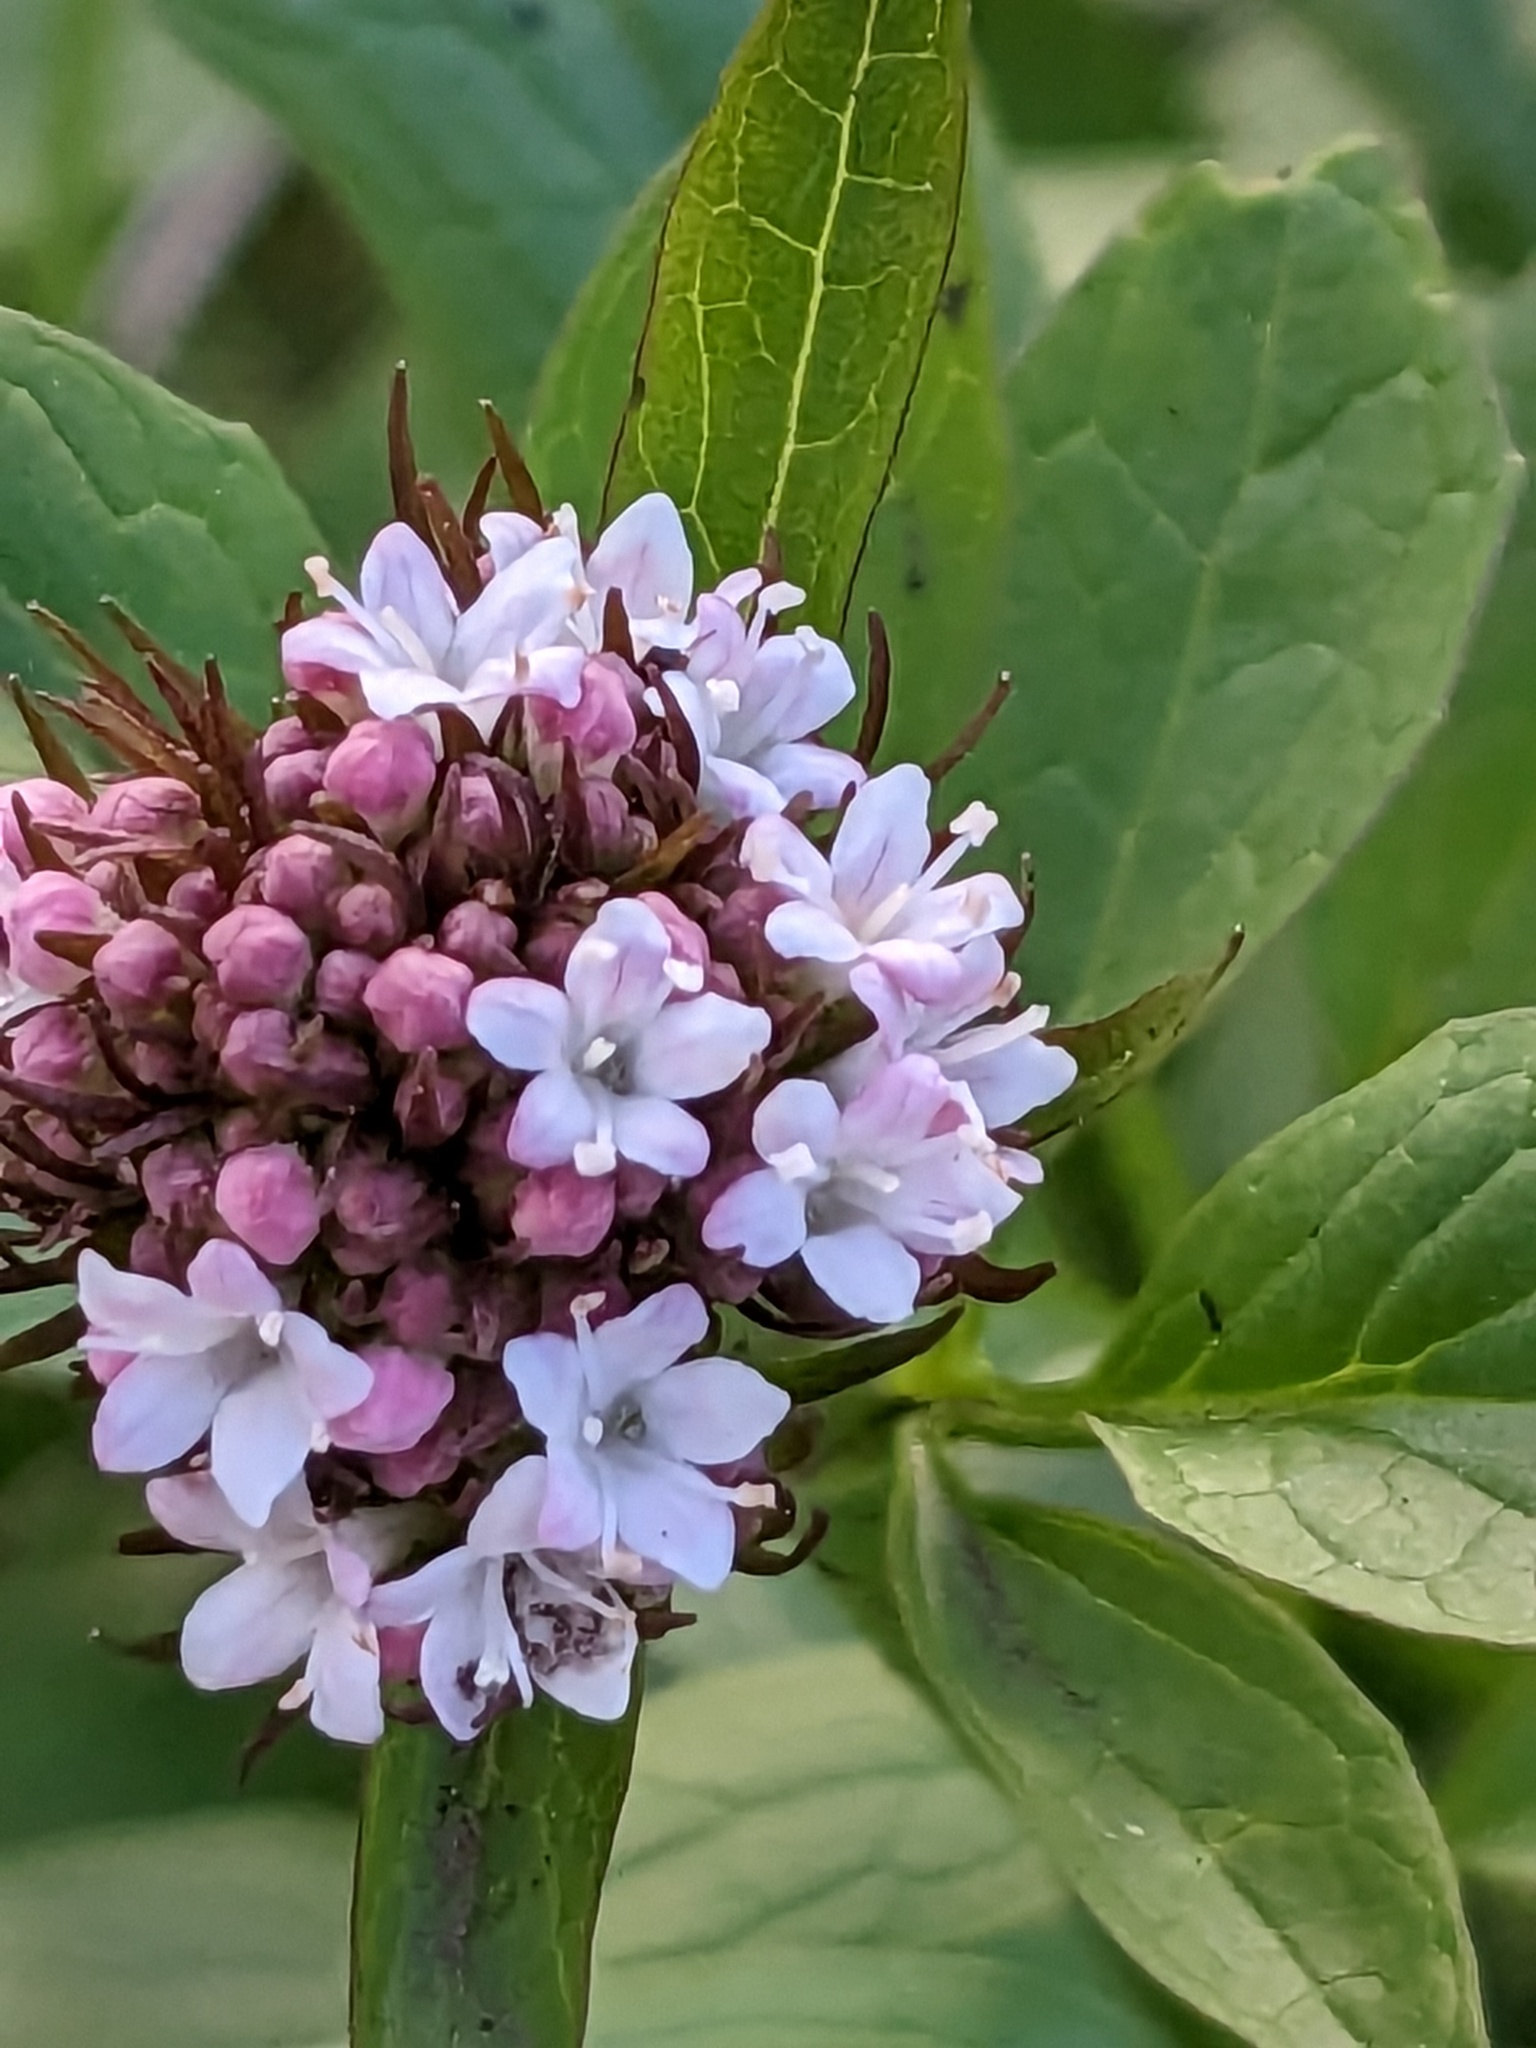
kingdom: Plantae
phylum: Tracheophyta
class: Magnoliopsida
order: Dipsacales
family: Caprifoliaceae
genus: Valeriana
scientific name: Valeriana sitchensis
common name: Pacific valerian
